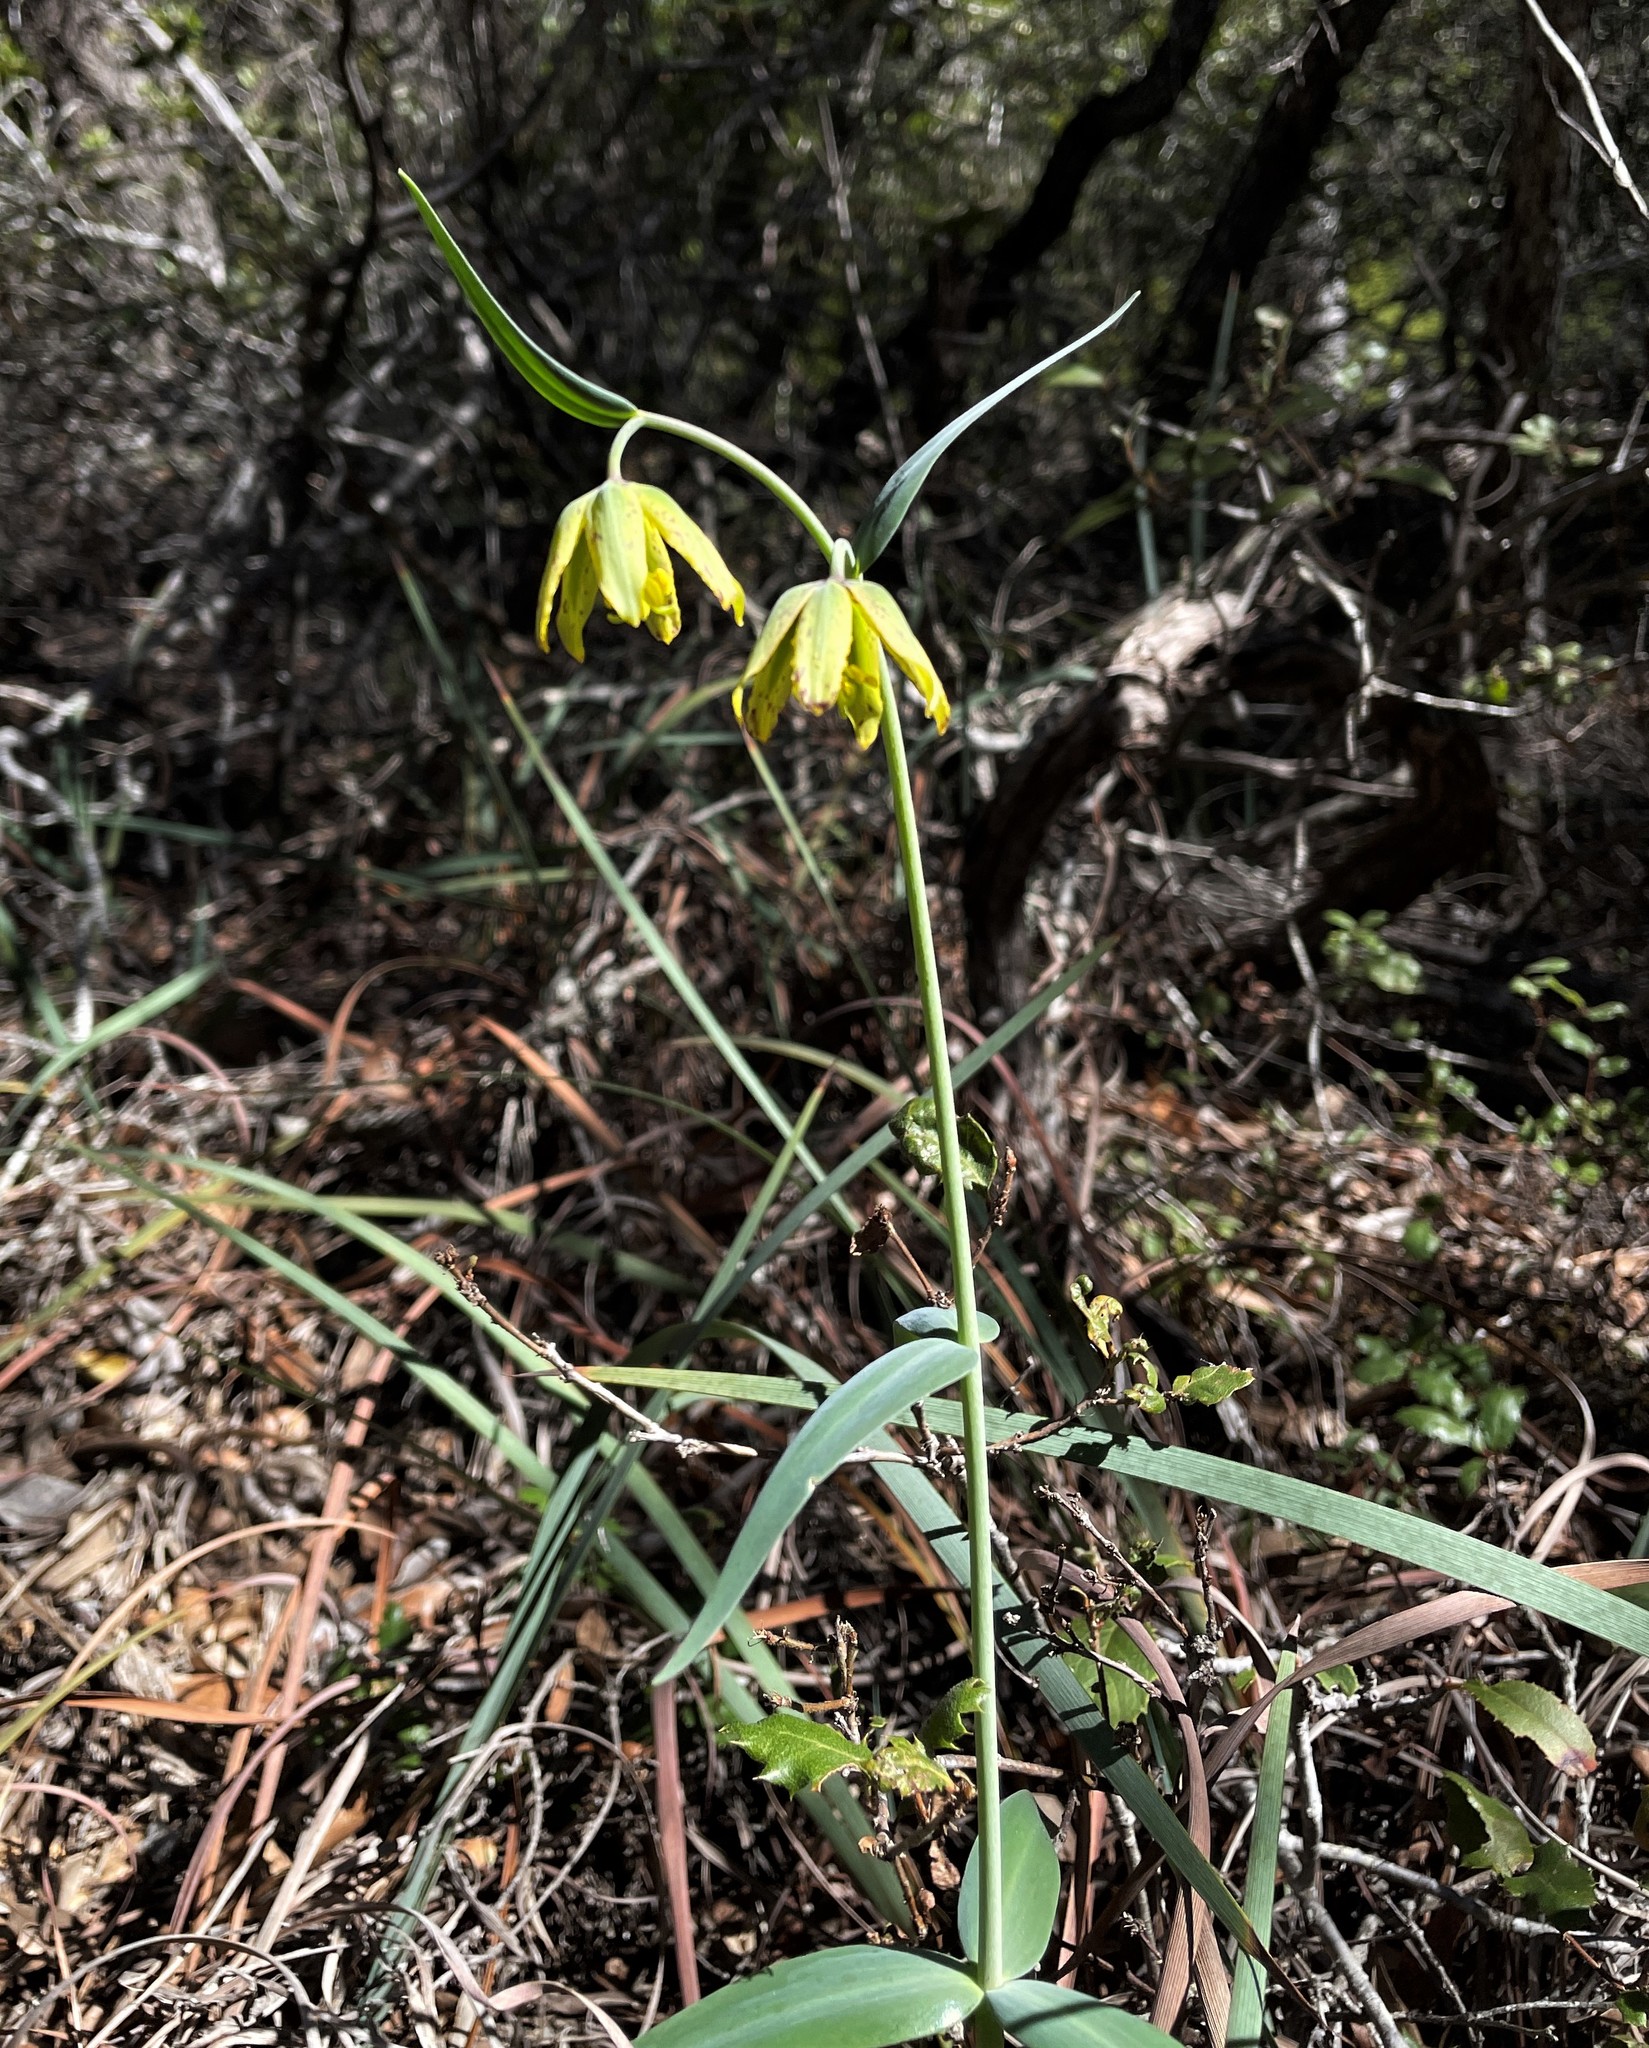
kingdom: Plantae
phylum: Tracheophyta
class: Liliopsida
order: Liliales
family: Liliaceae
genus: Fritillaria
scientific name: Fritillaria affinis
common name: Ojai fritillary
